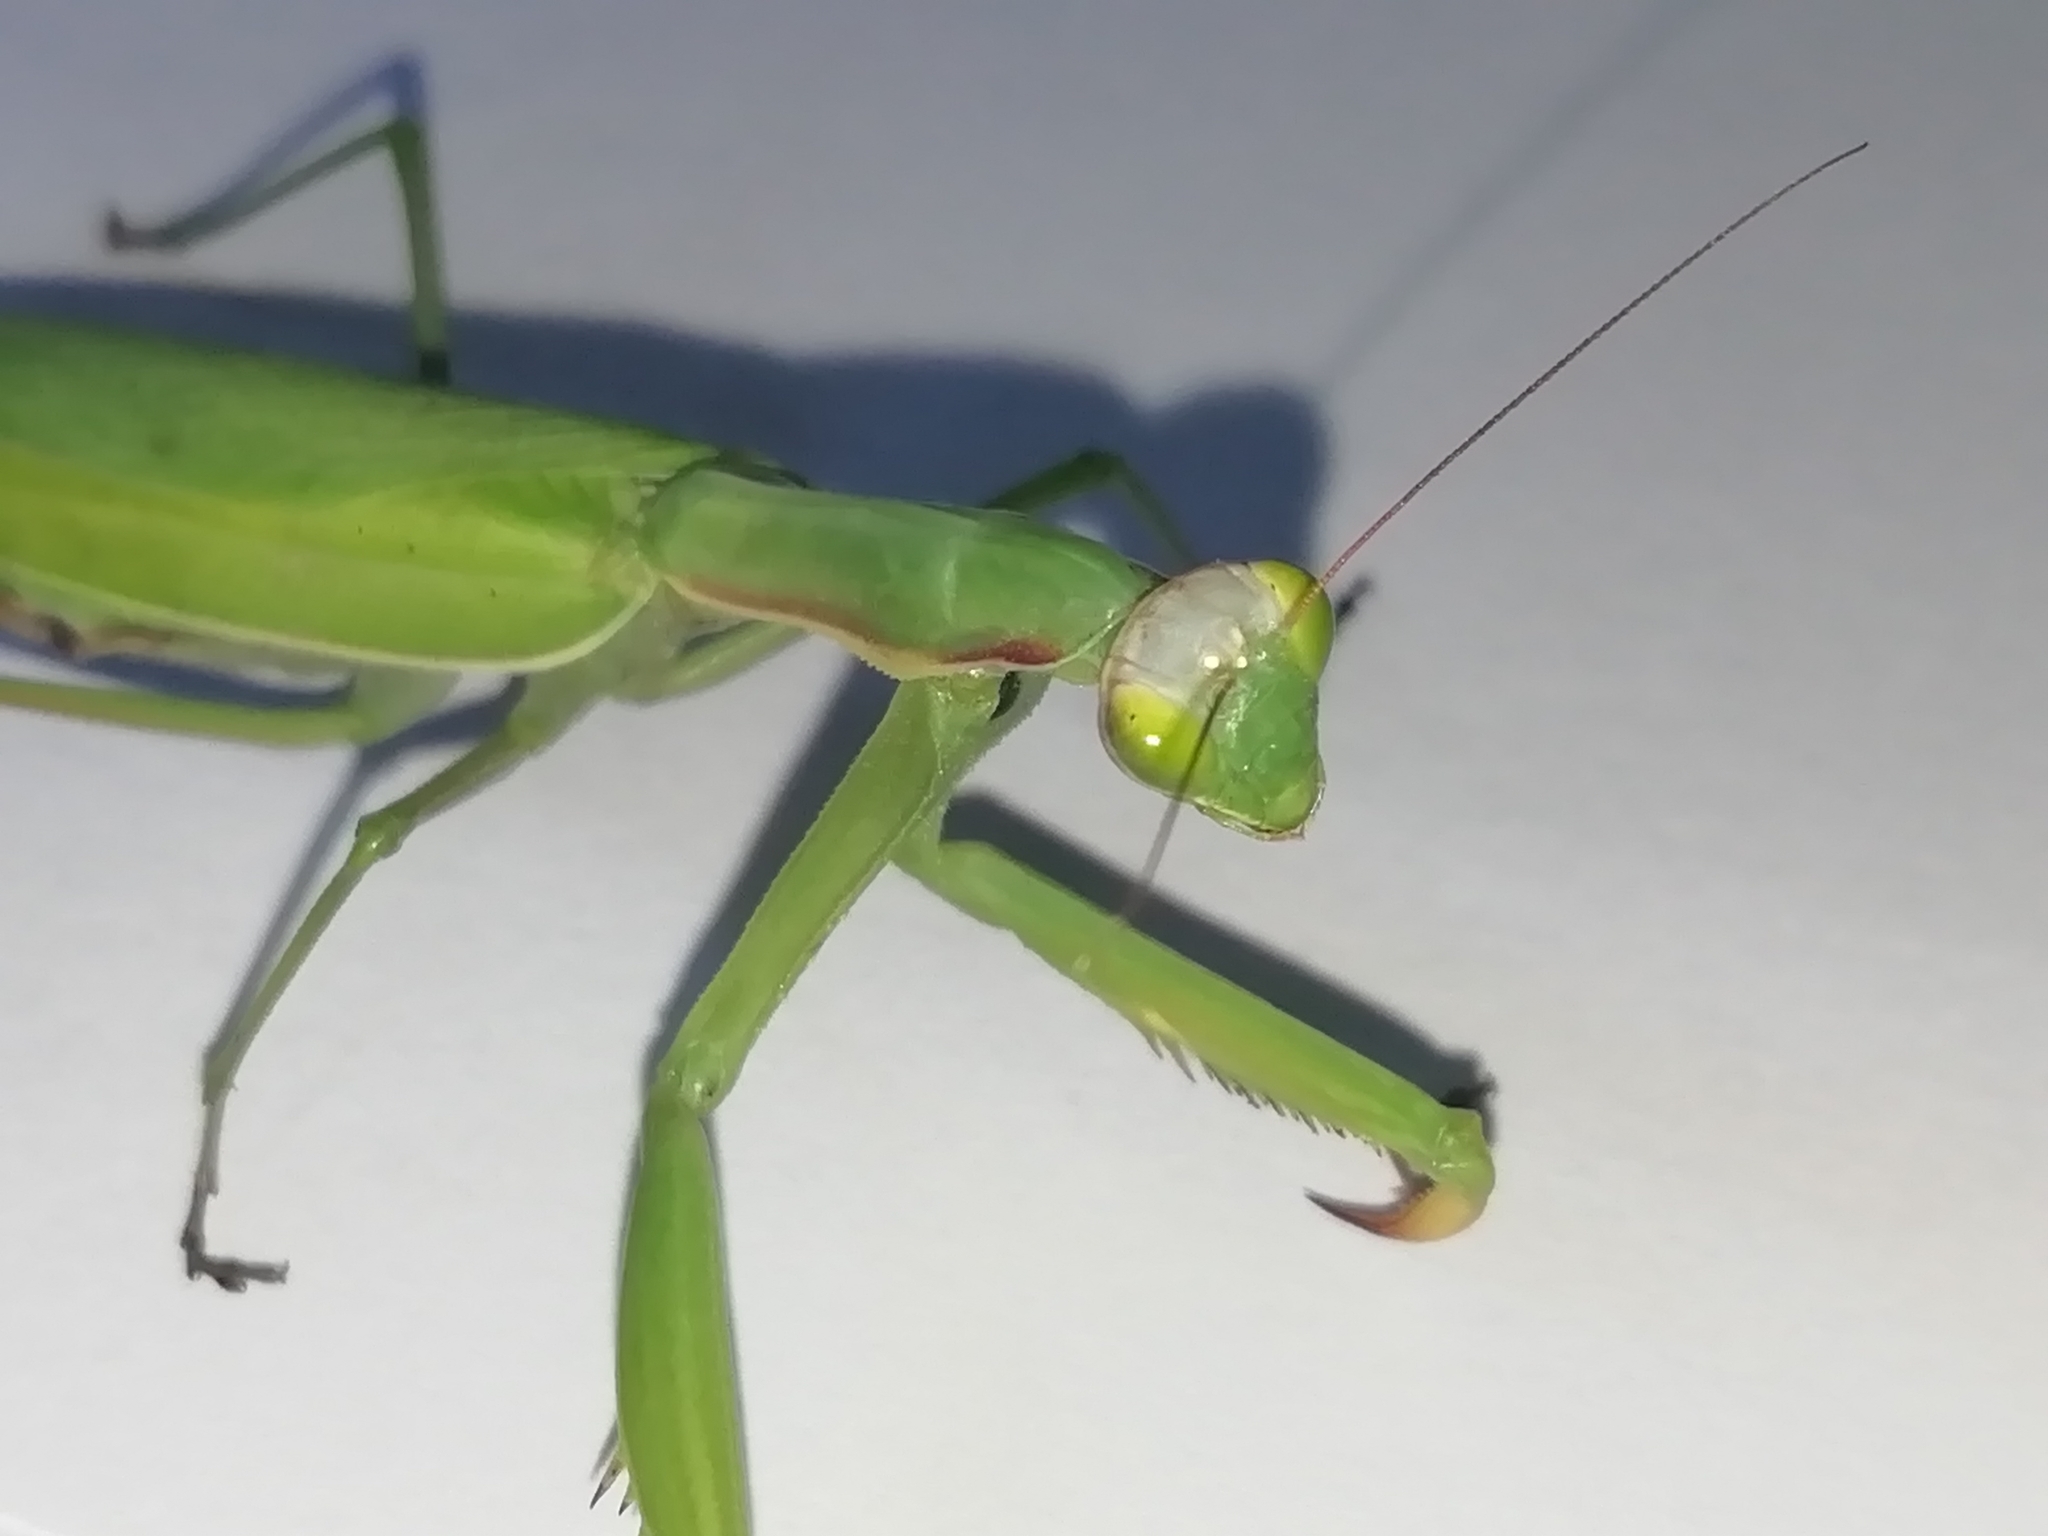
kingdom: Animalia
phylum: Arthropoda
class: Insecta
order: Mantodea
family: Mantidae
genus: Mantis
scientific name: Mantis religiosa
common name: Praying mantis
